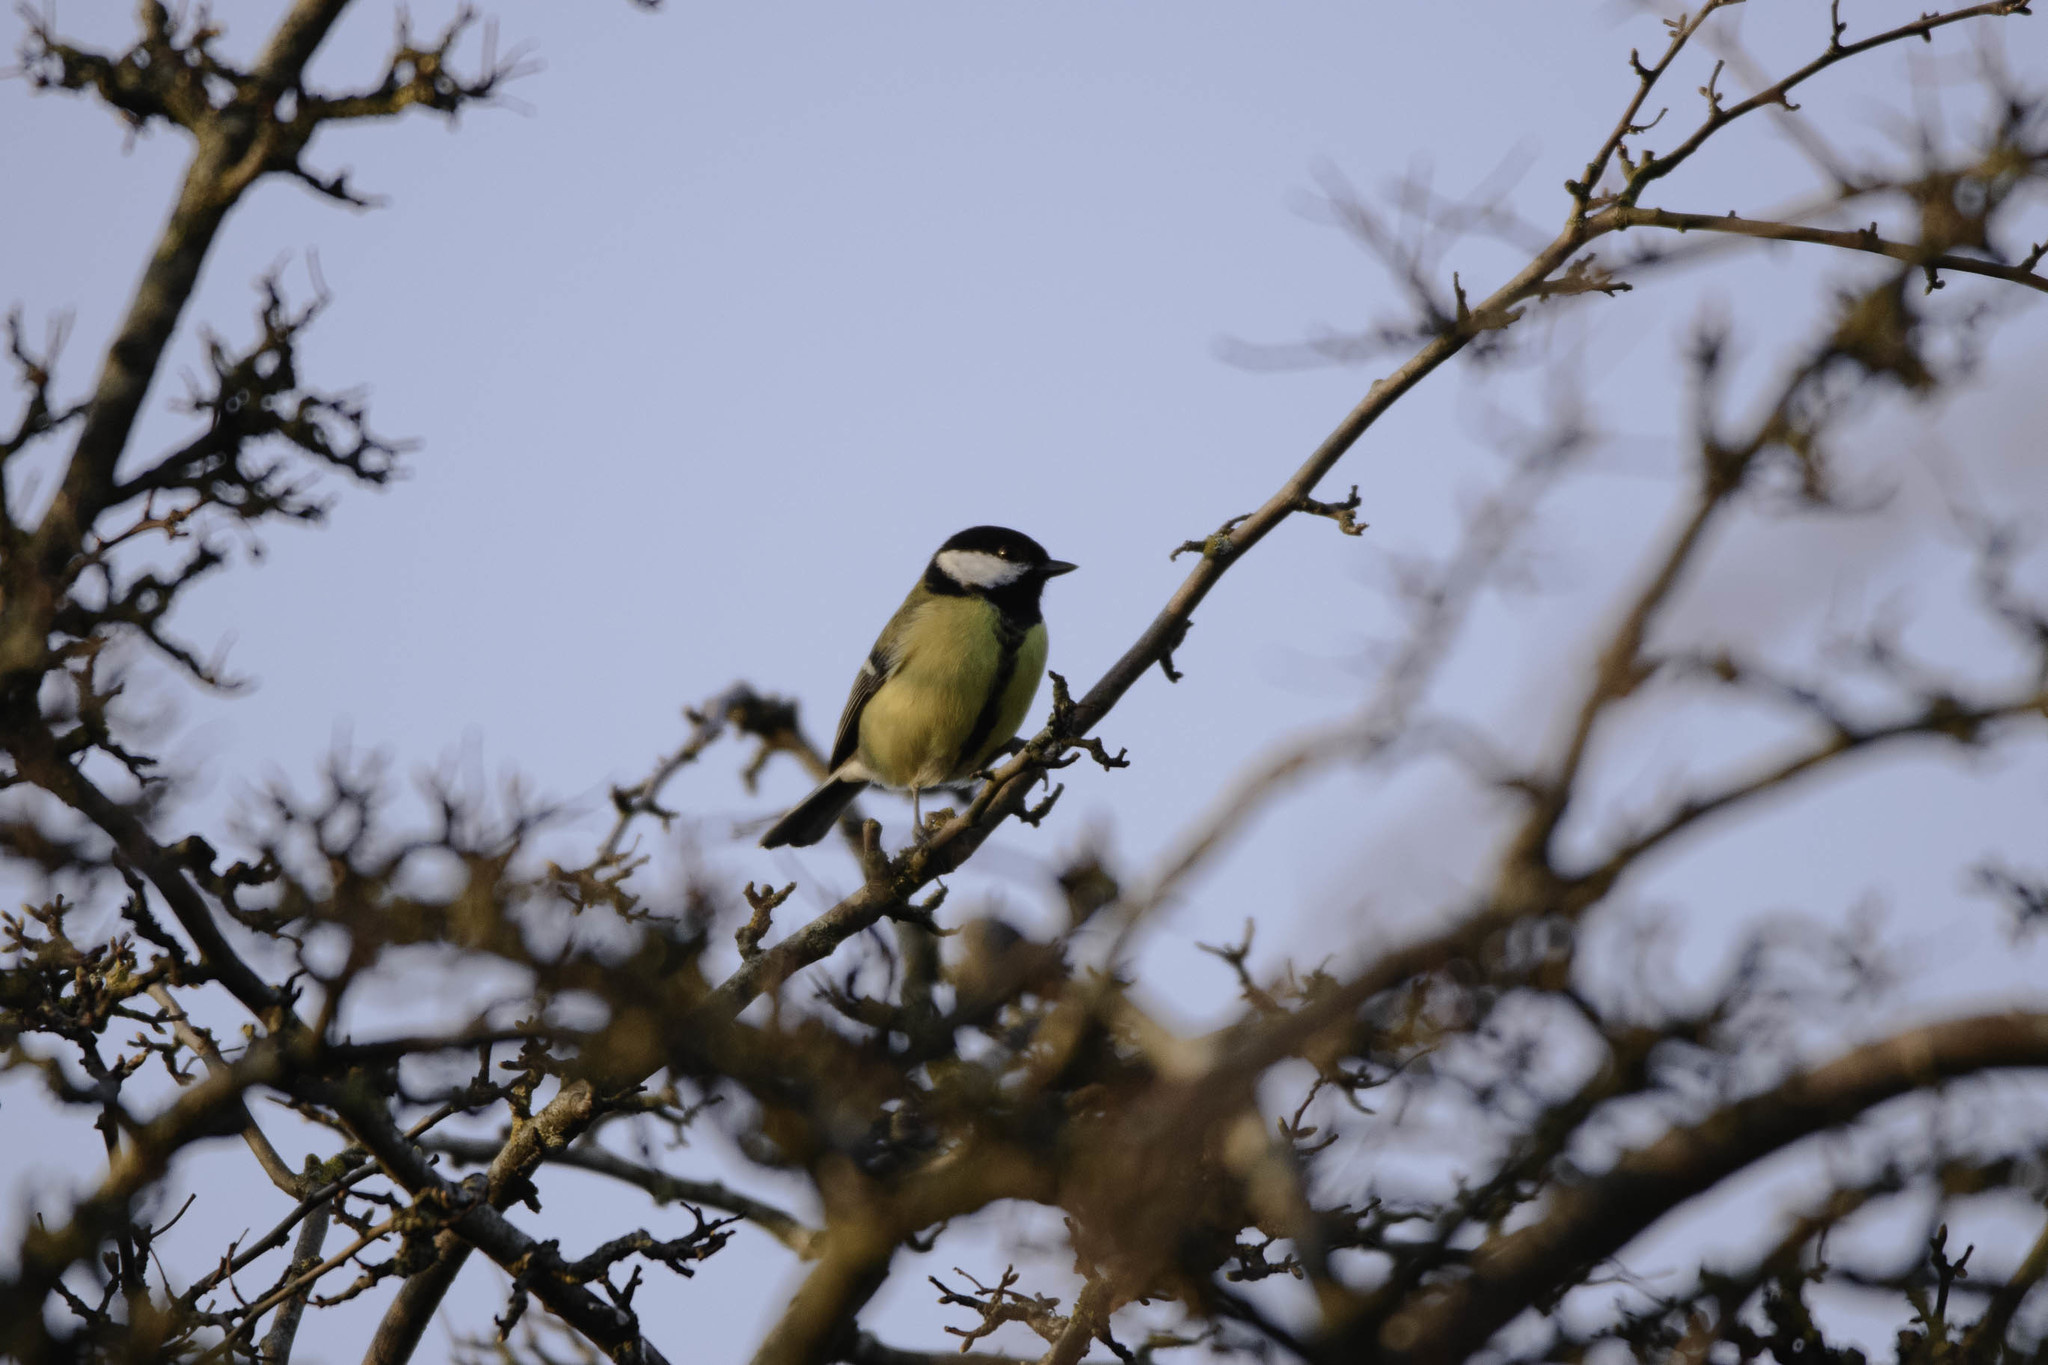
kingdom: Animalia
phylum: Chordata
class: Aves
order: Passeriformes
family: Paridae
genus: Parus
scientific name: Parus major
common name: Great tit
